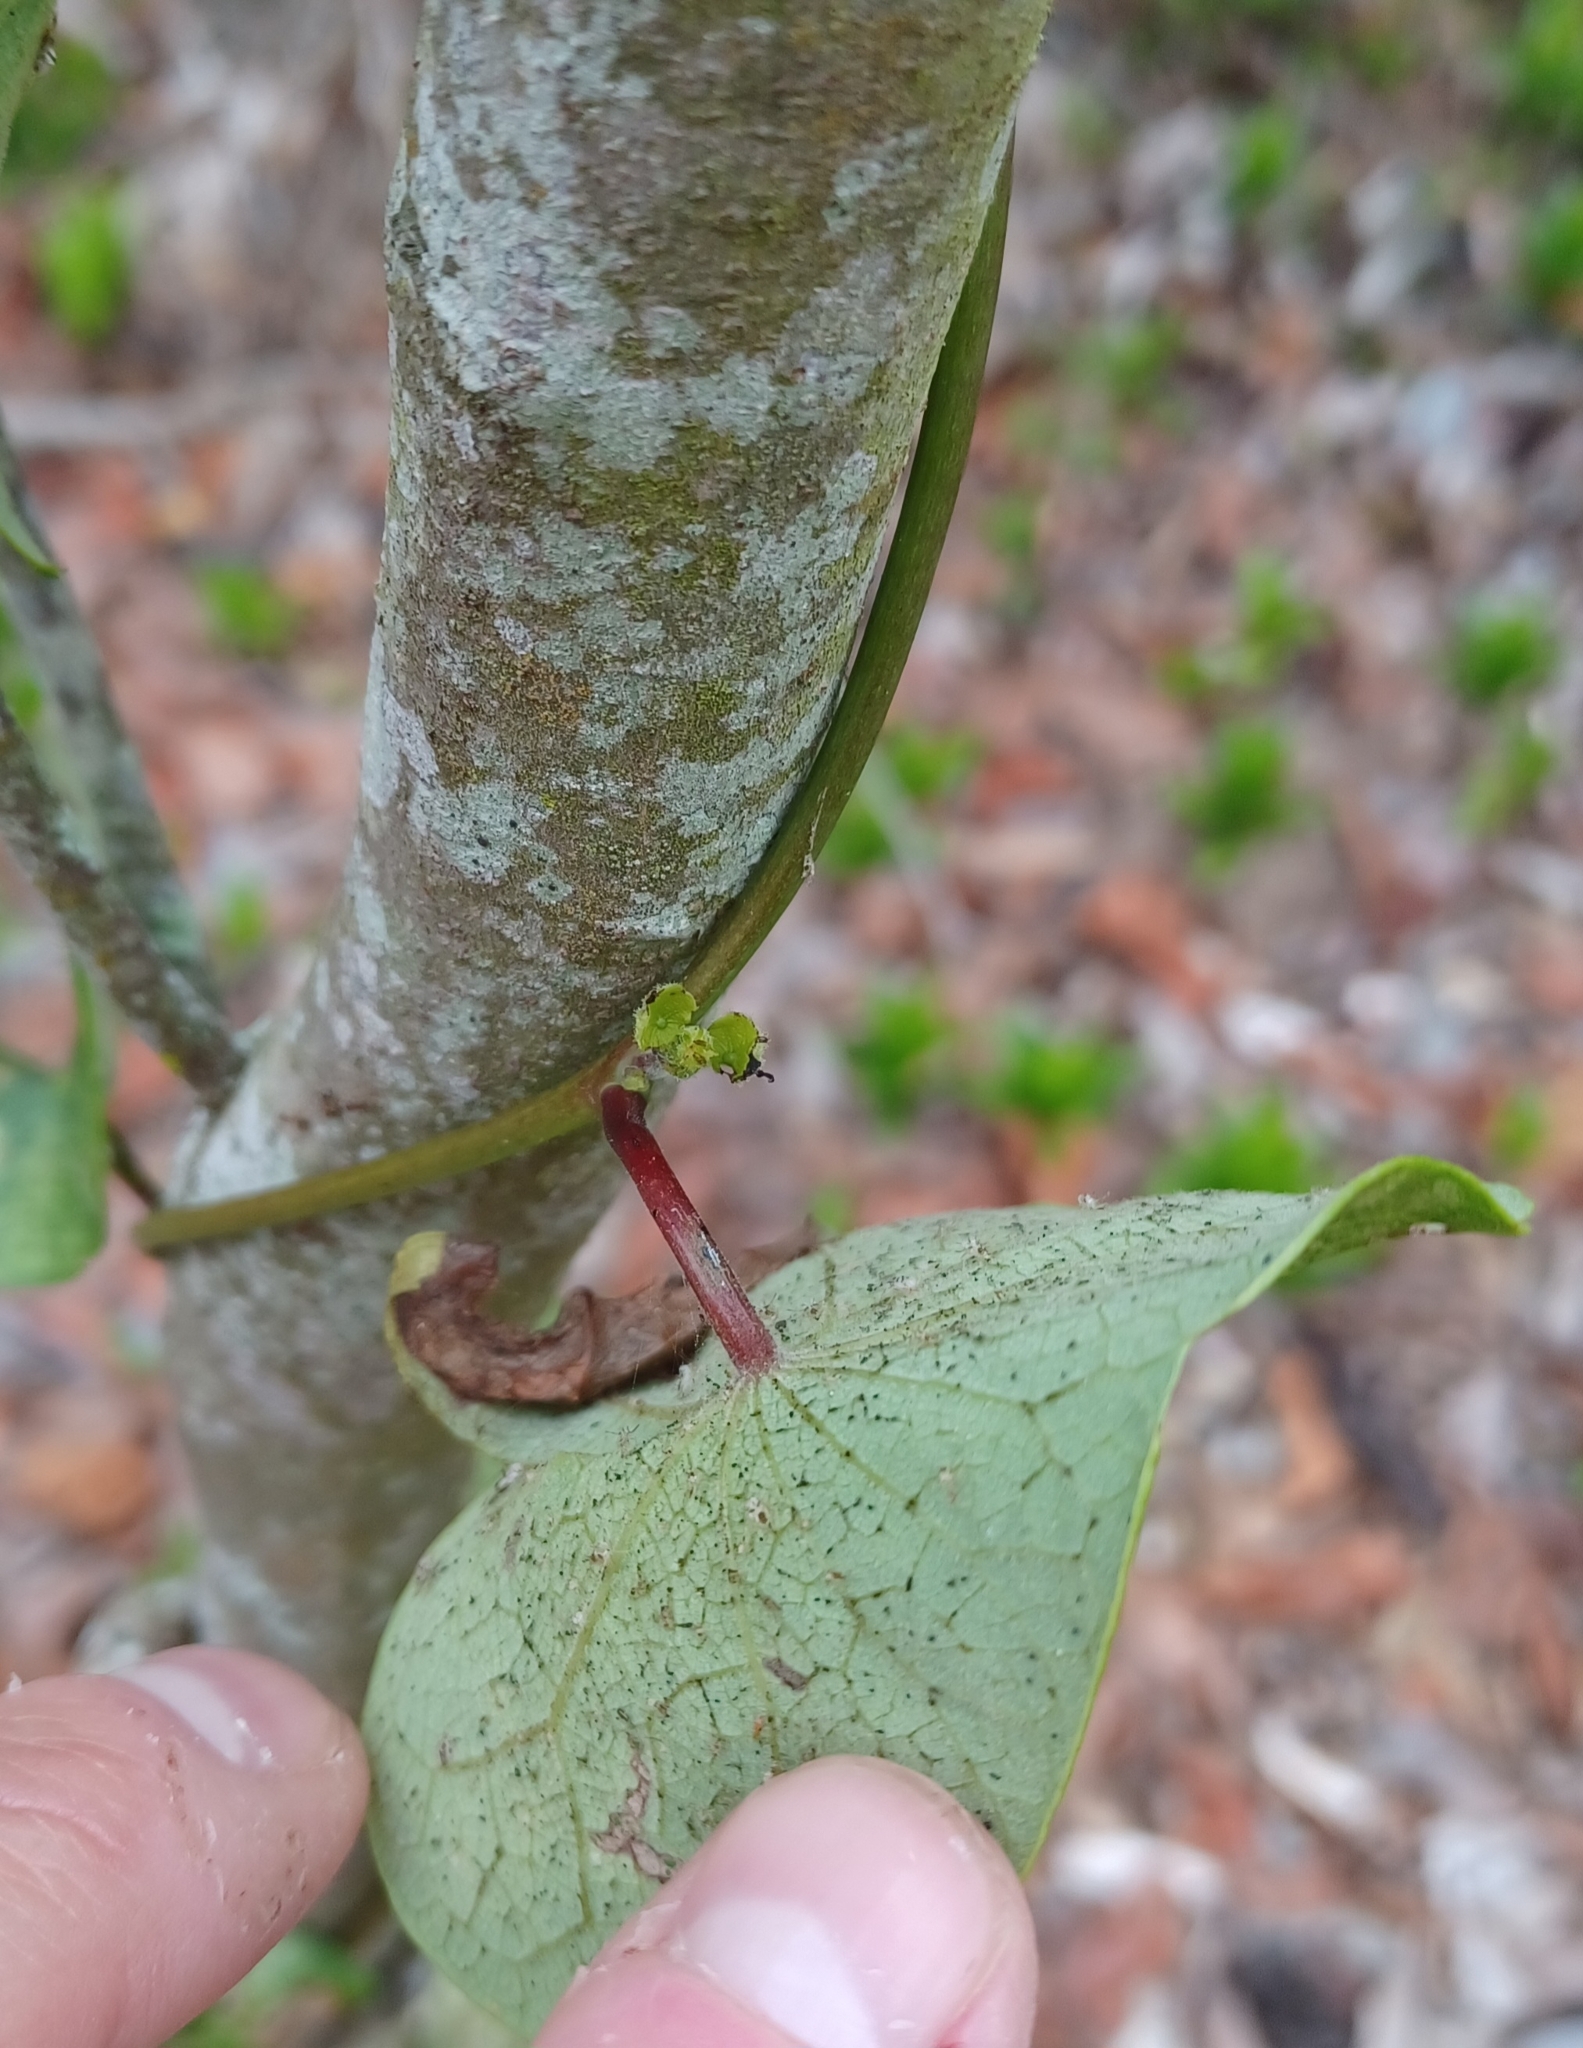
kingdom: Plantae
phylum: Tracheophyta
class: Magnoliopsida
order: Ranunculales
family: Menispermaceae
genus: Stephania
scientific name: Stephania japonica
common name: Snake vine
